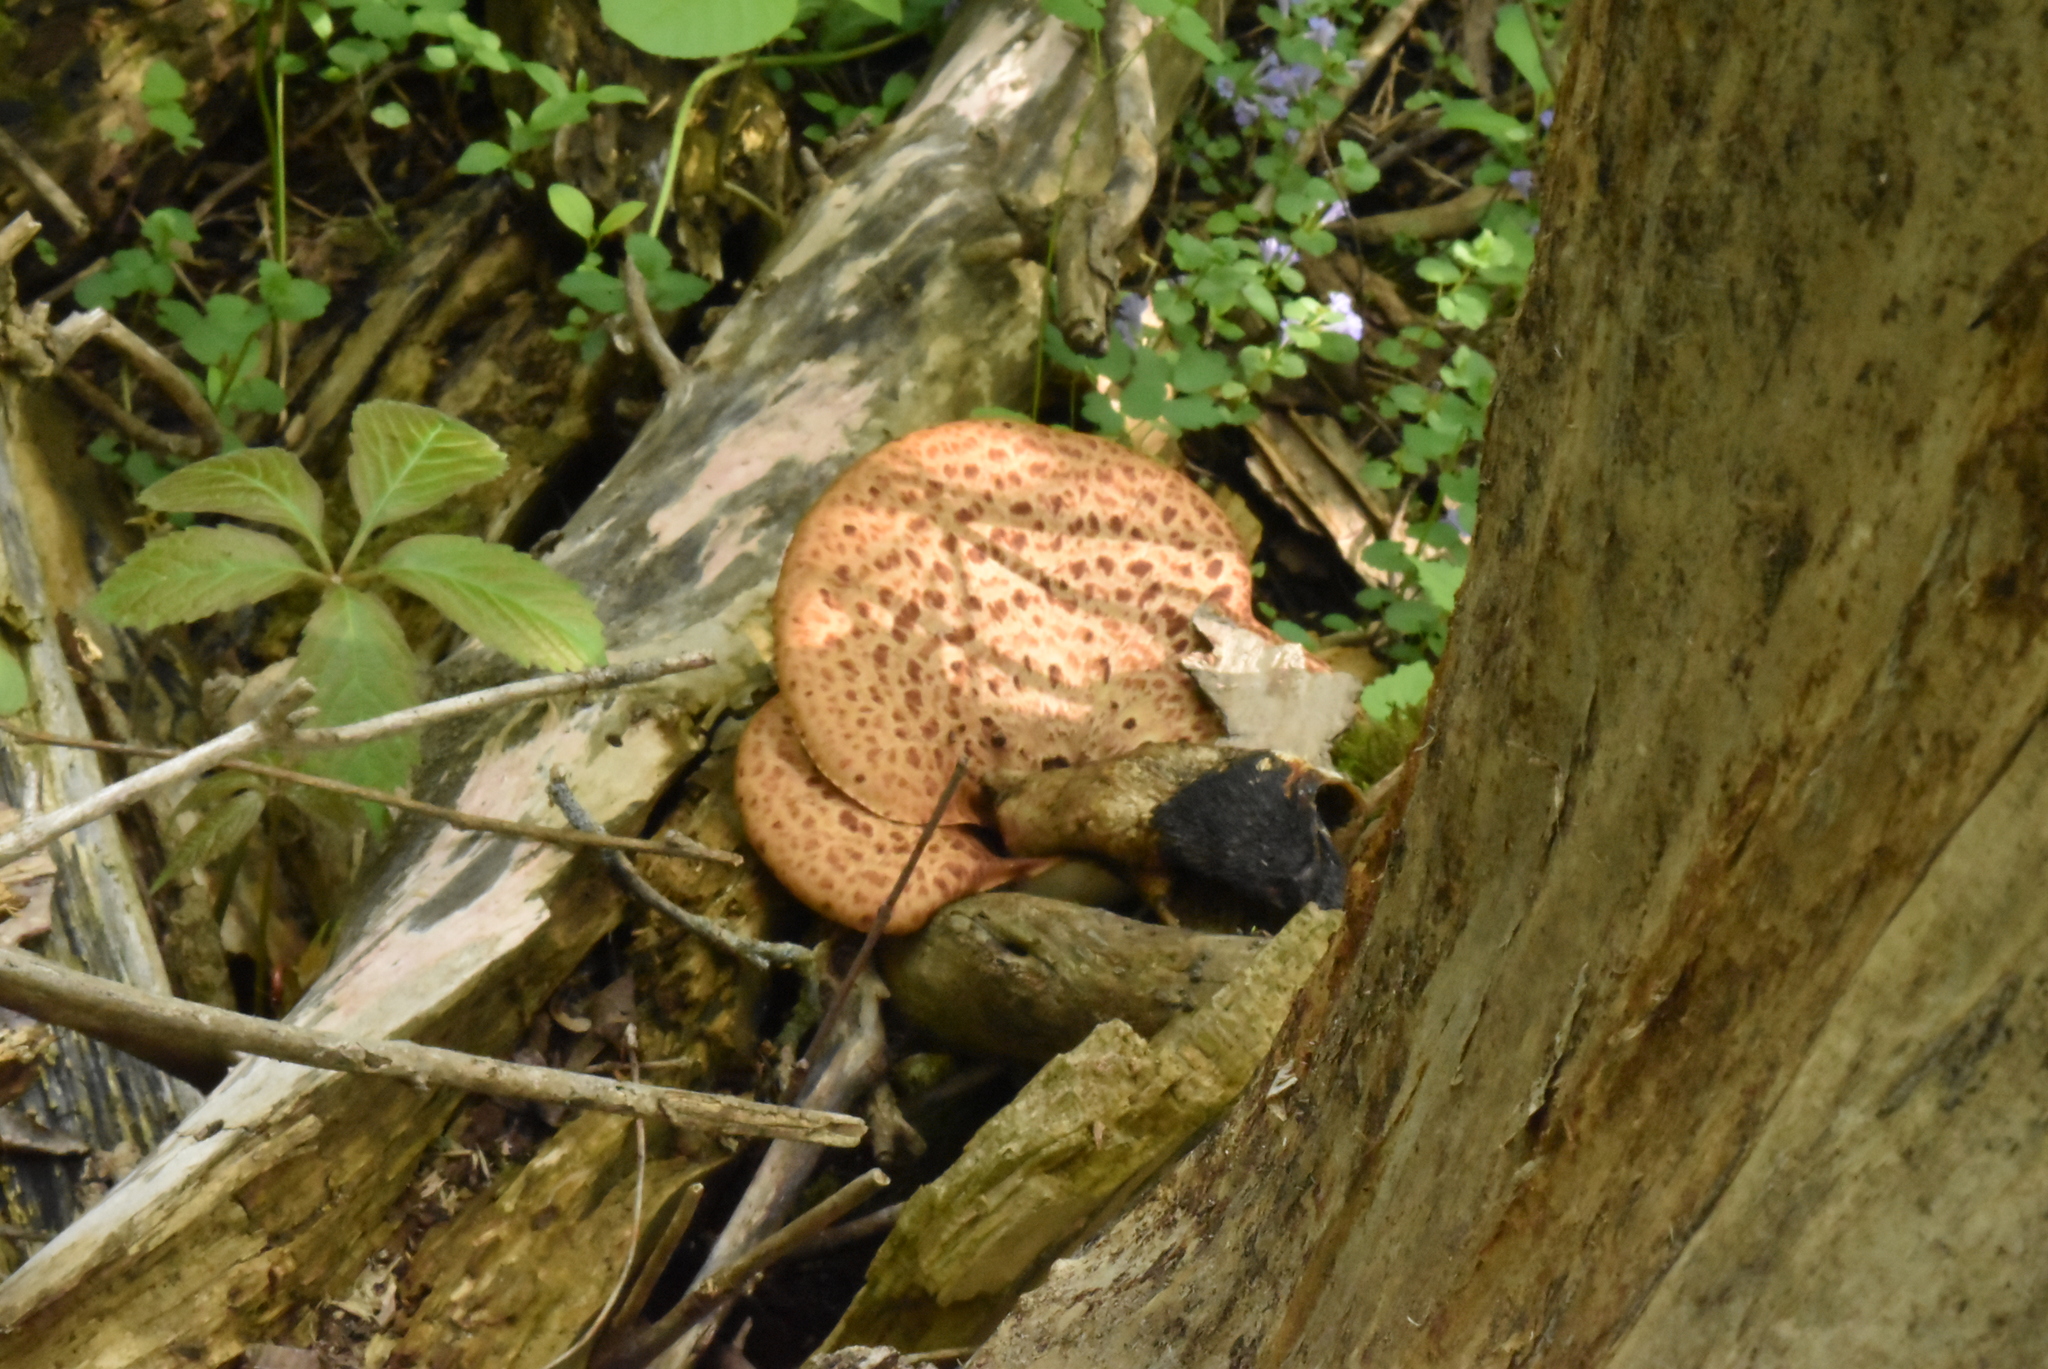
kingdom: Fungi
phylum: Basidiomycota
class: Agaricomycetes
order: Polyporales
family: Polyporaceae
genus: Cerioporus
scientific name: Cerioporus squamosus
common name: Dryad's saddle
